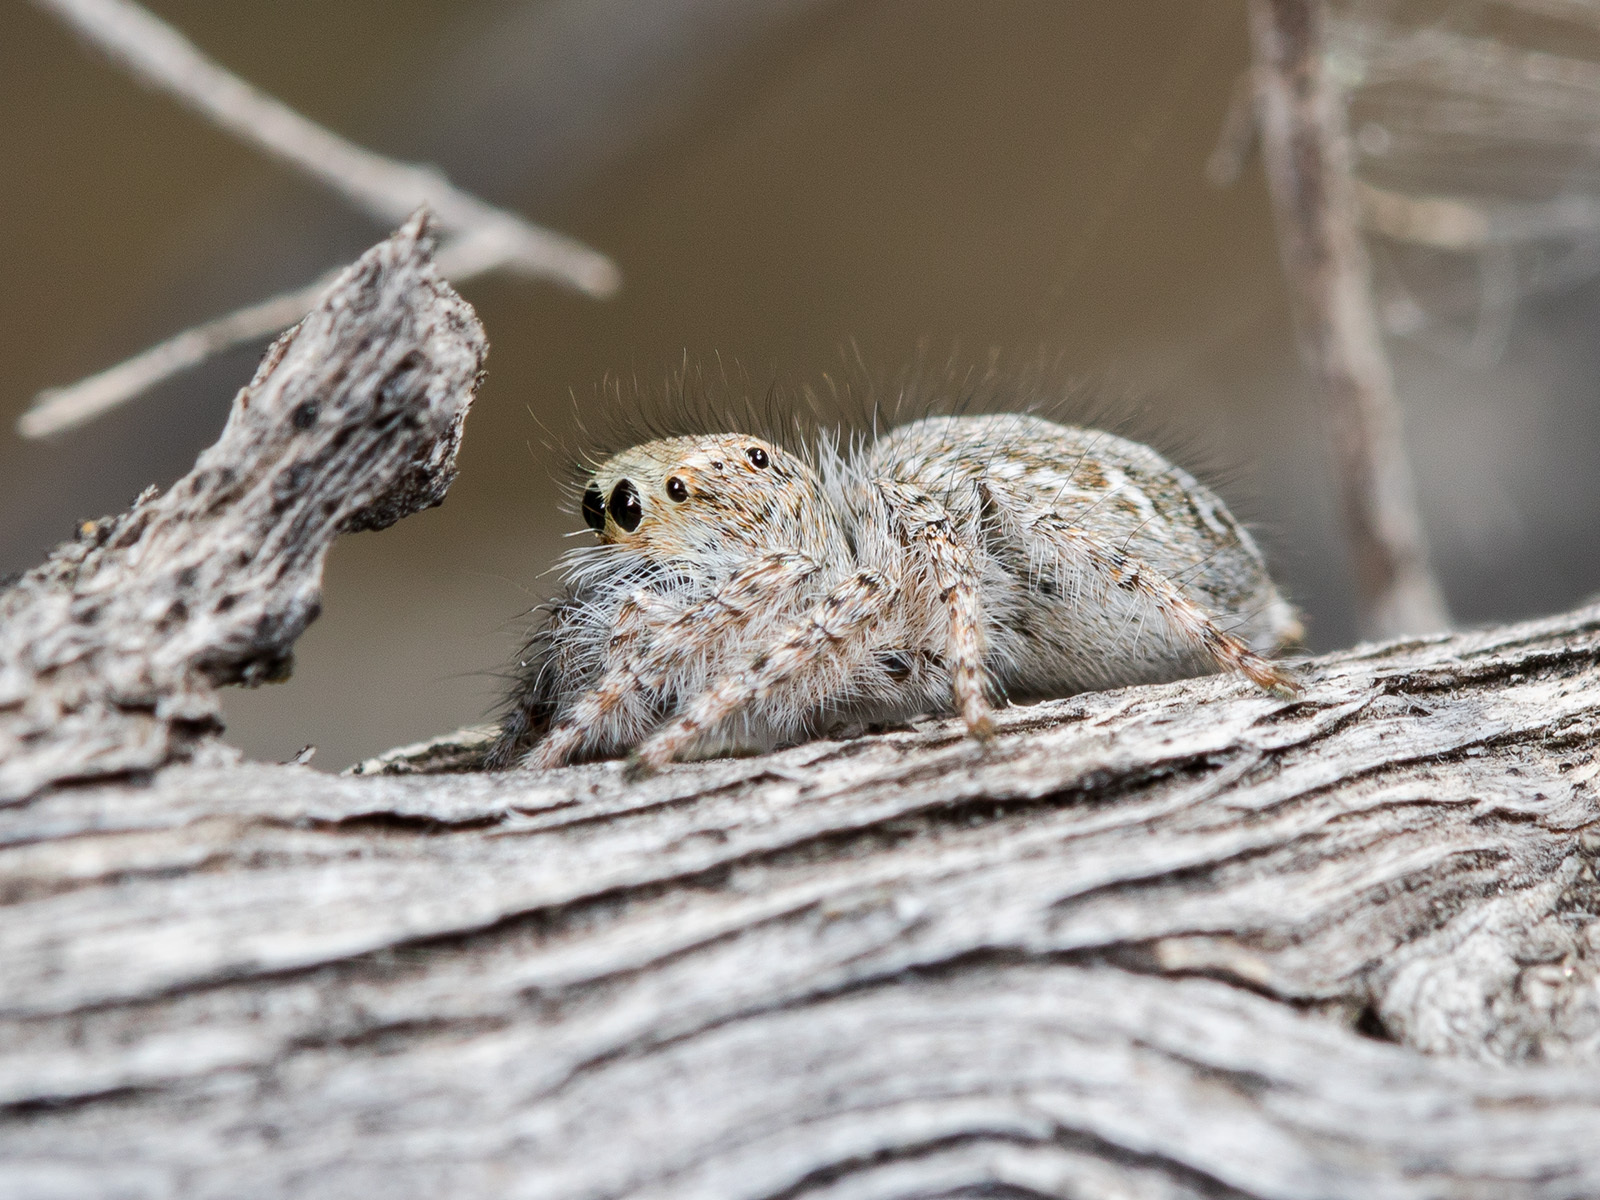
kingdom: Animalia
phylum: Arthropoda
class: Arachnida
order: Araneae
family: Salticidae
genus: Mogrus
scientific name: Mogrus larisae
